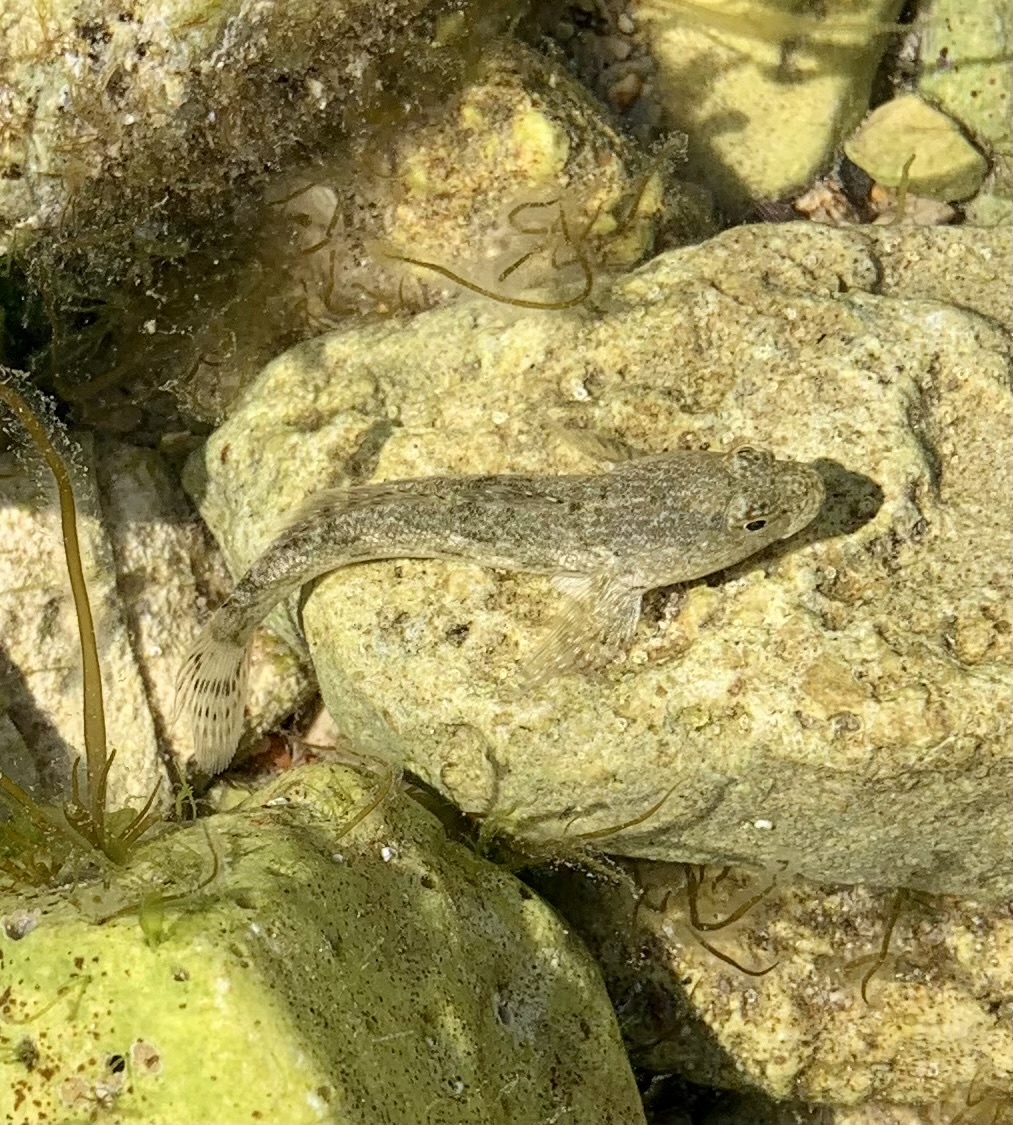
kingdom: Animalia
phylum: Chordata
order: Perciformes
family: Gobiidae
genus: Gobius
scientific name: Gobius cobitis
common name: Giant goby
